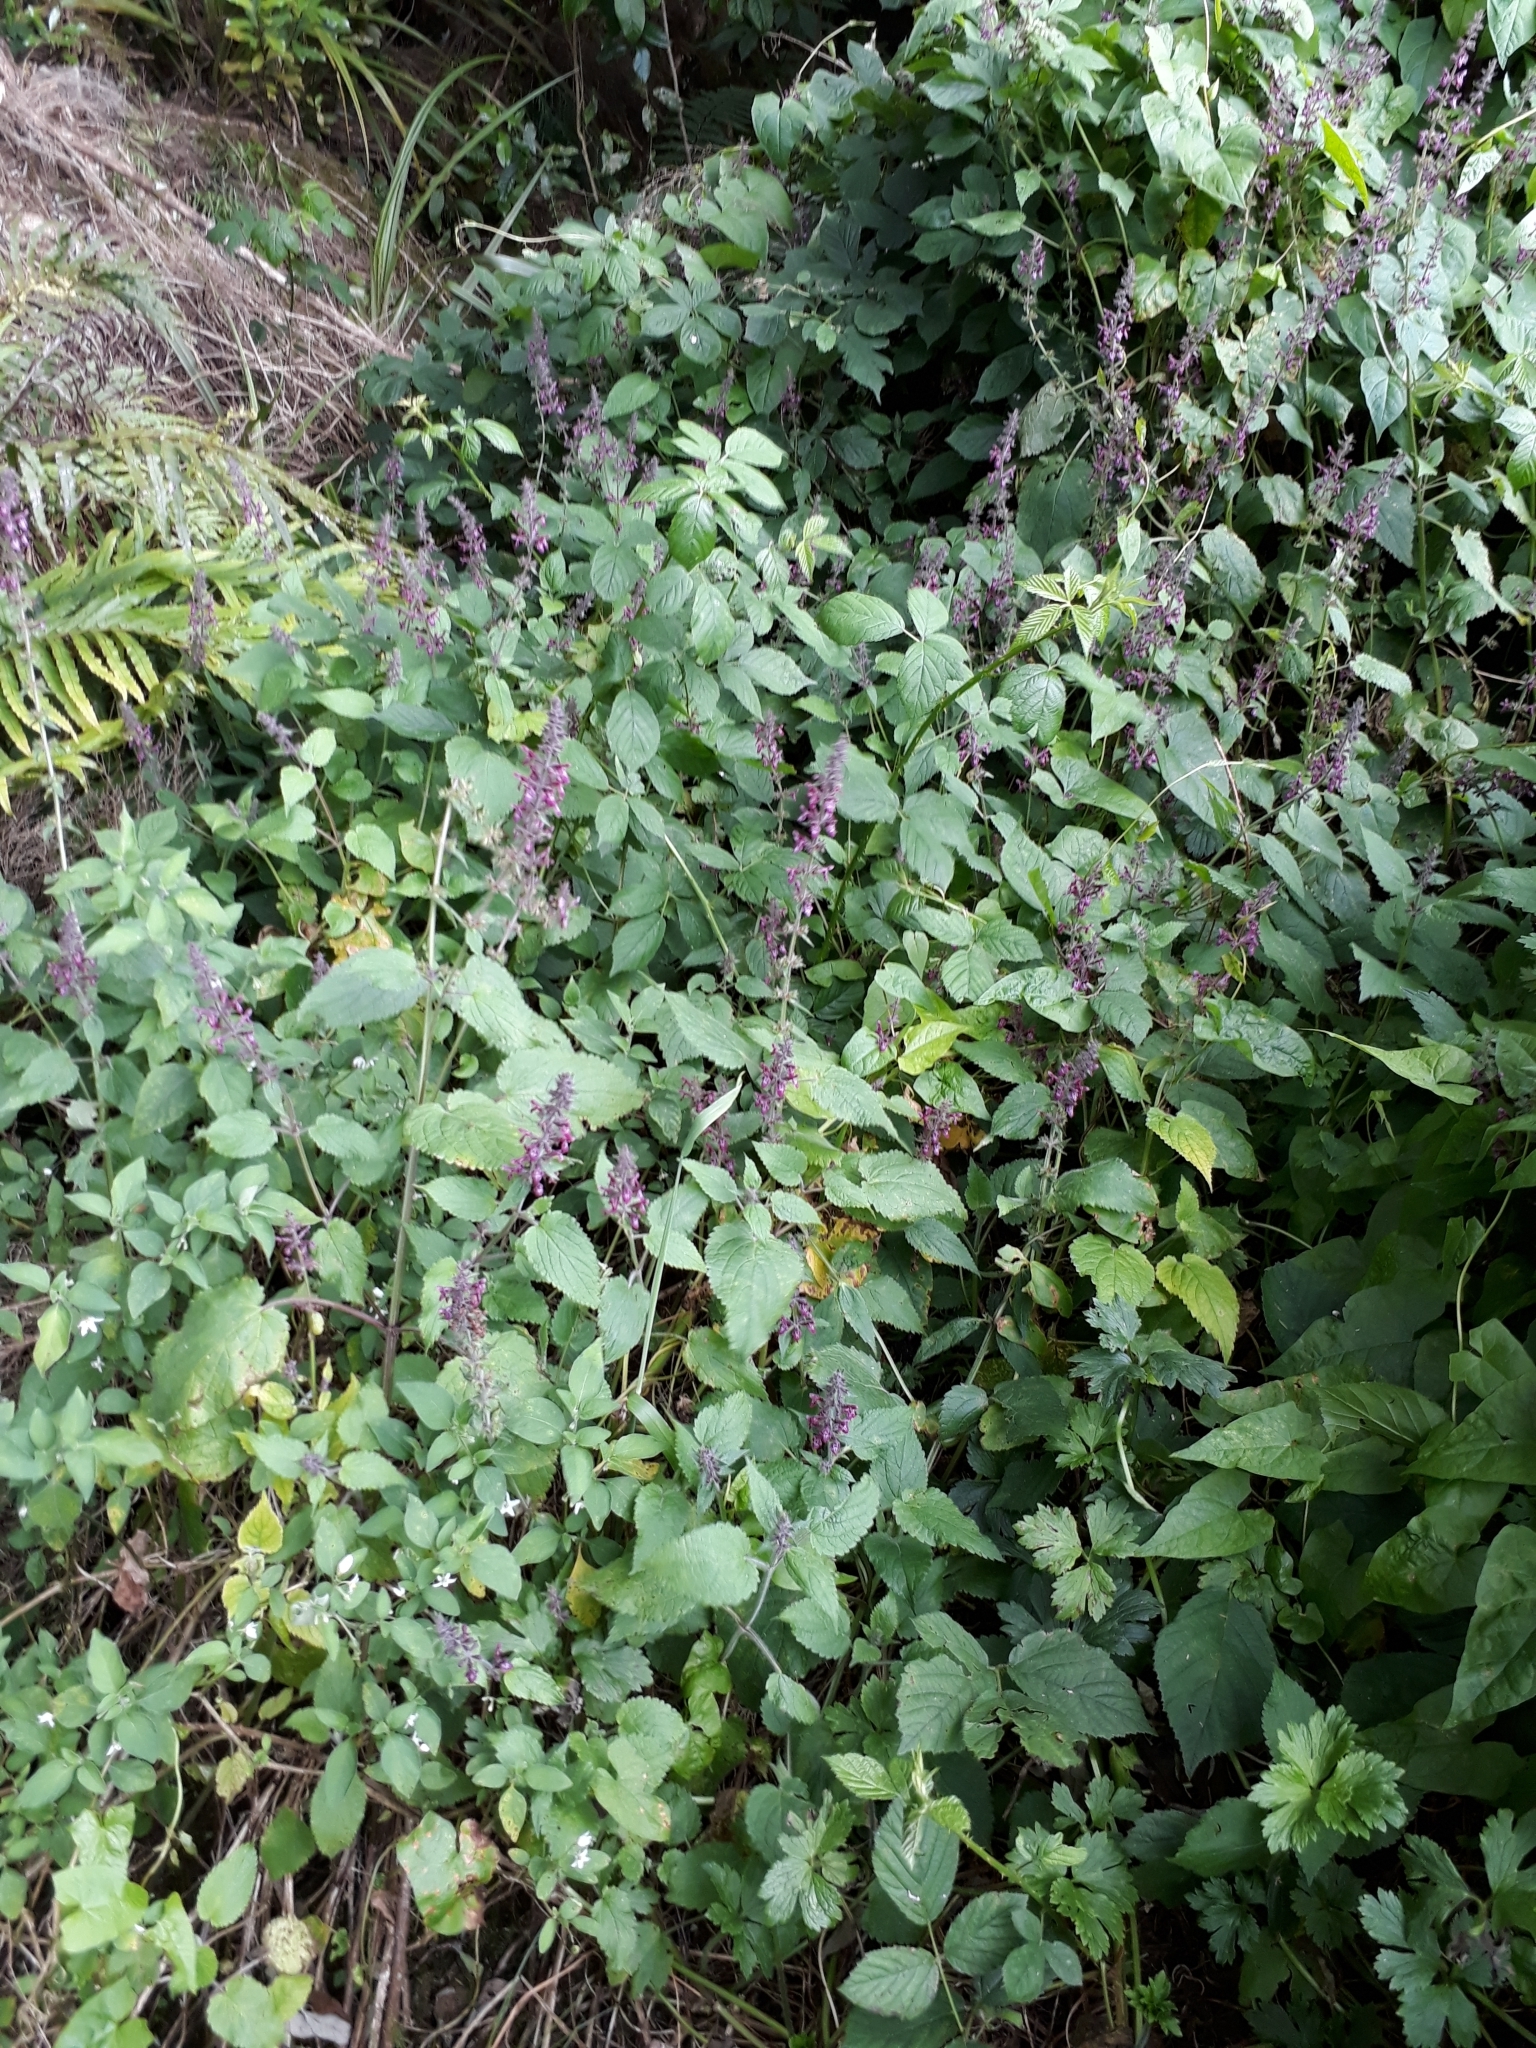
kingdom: Plantae
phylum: Tracheophyta
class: Magnoliopsida
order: Lamiales
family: Lamiaceae
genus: Stachys
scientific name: Stachys sylvatica
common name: Hedge woundwort
